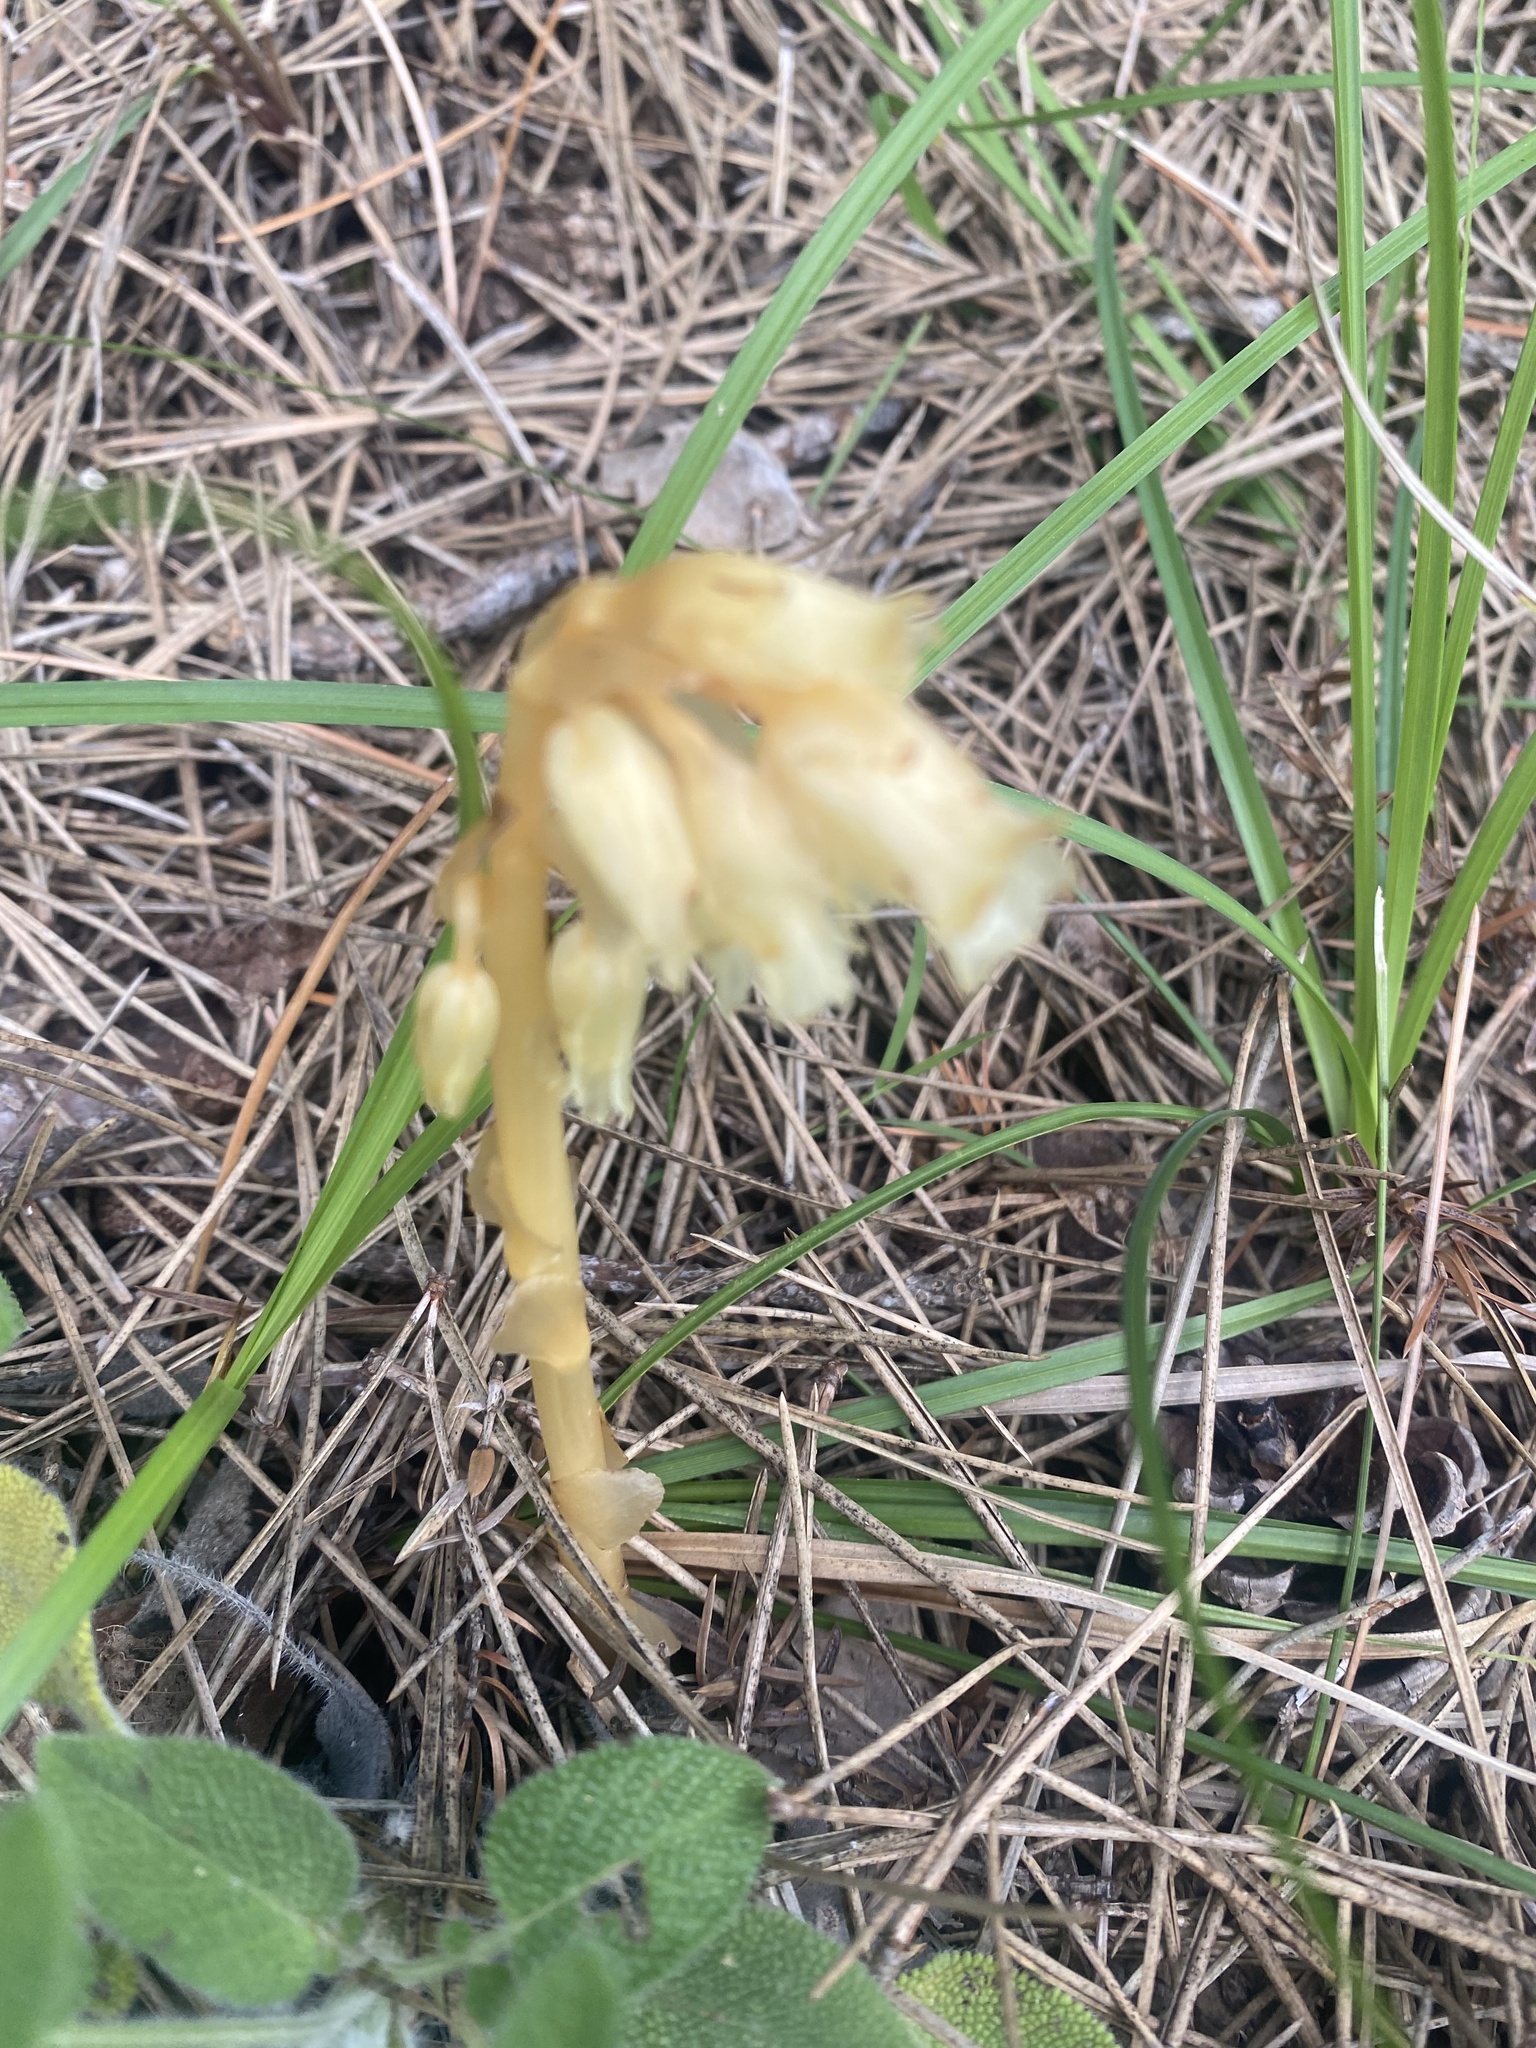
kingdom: Plantae
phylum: Tracheophyta
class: Magnoliopsida
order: Ericales
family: Ericaceae
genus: Hypopitys
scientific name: Hypopitys monotropa
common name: Yellow bird's-nest
